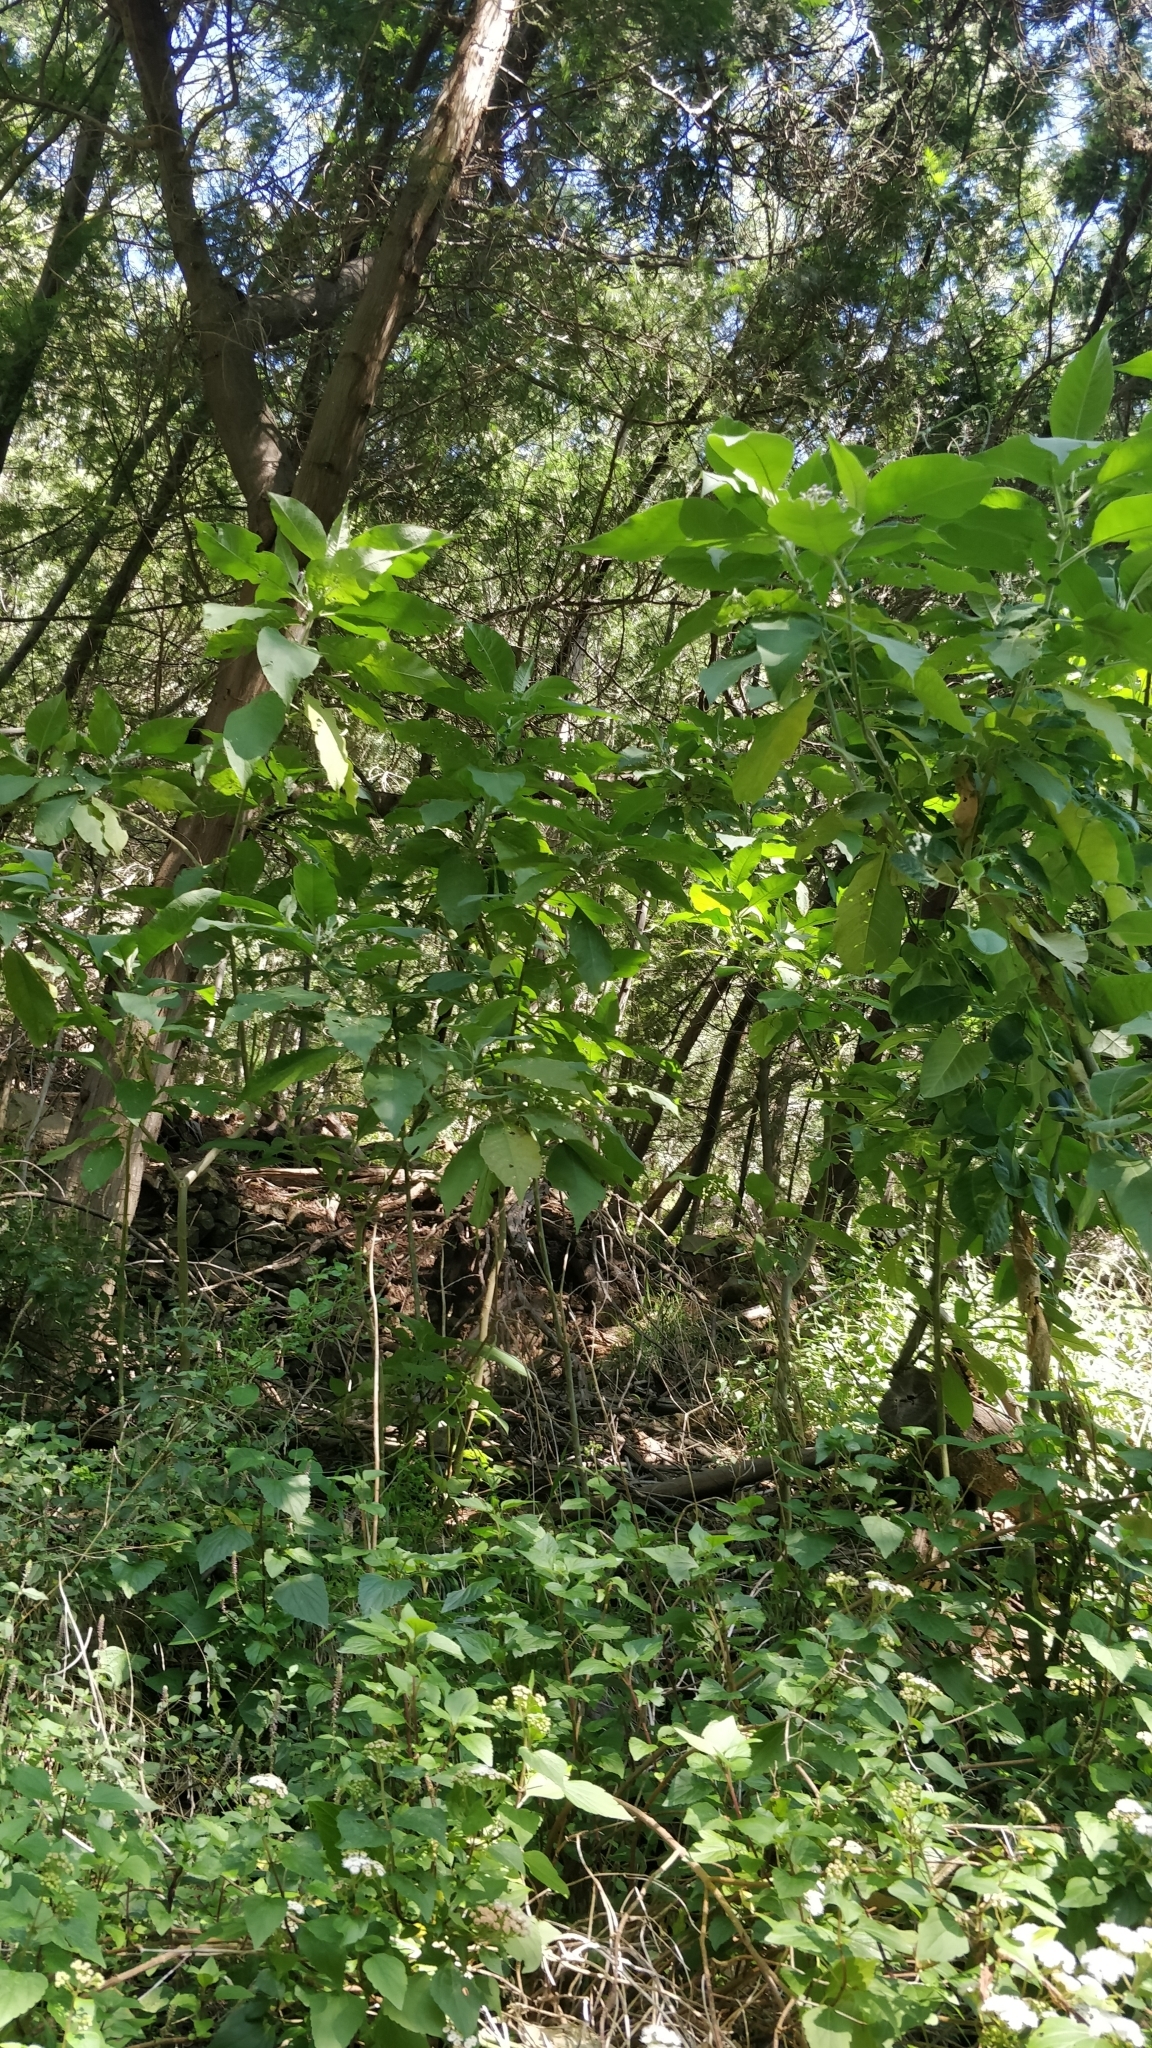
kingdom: Plantae
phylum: Tracheophyta
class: Magnoliopsida
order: Solanales
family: Solanaceae
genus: Solanum
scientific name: Solanum mauritianum
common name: Earleaf nightshade
